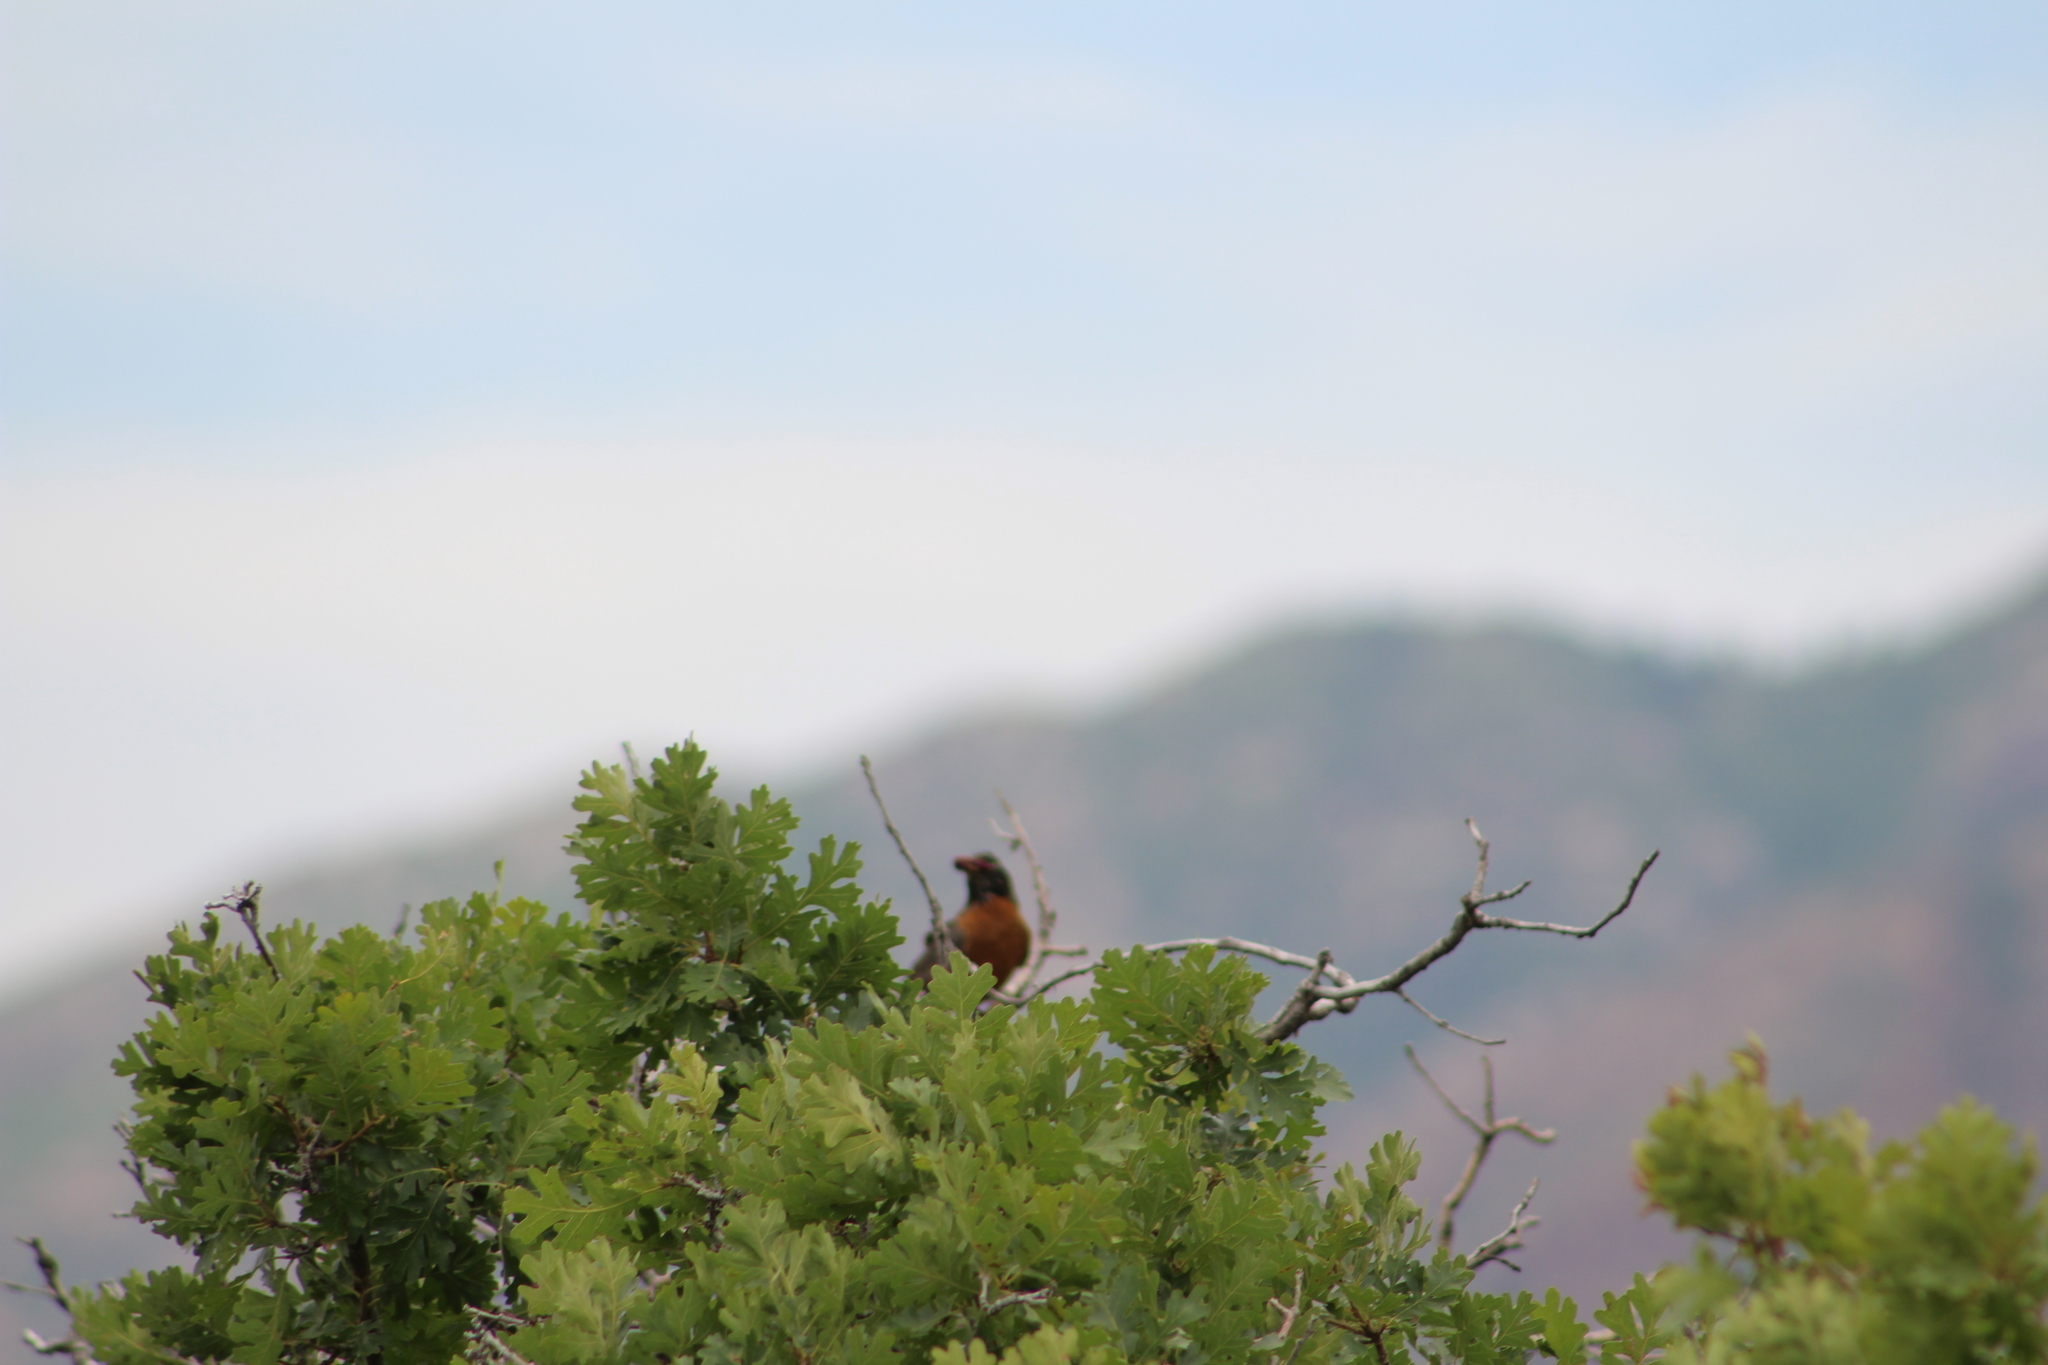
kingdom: Animalia
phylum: Chordata
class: Aves
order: Passeriformes
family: Turdidae
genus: Turdus
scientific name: Turdus migratorius
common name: American robin
